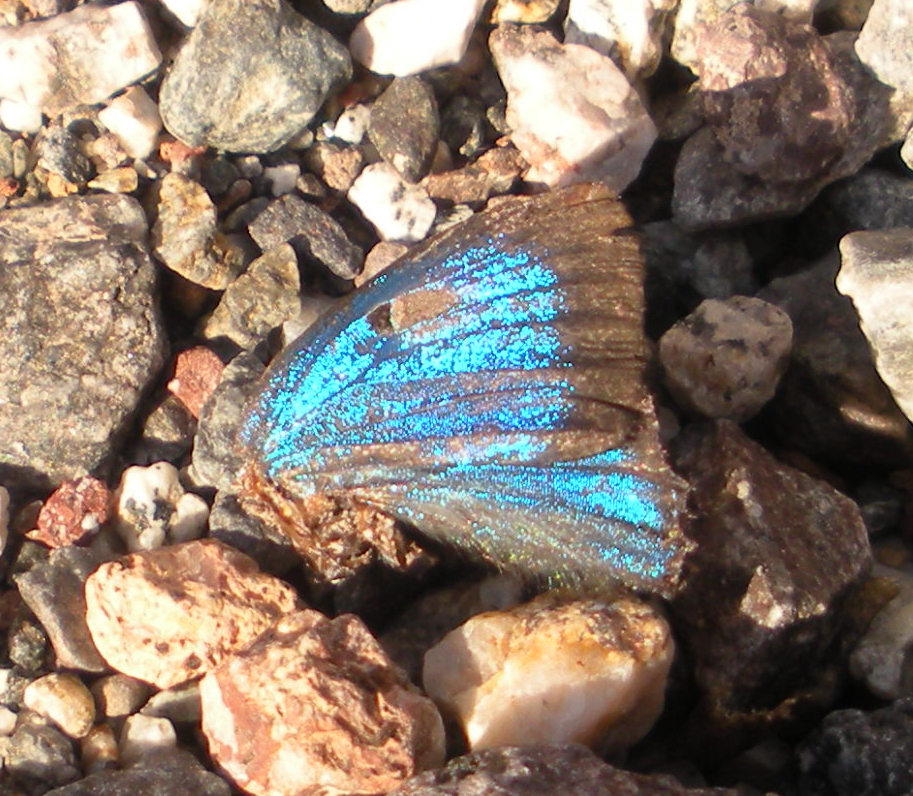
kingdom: Animalia
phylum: Arthropoda
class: Insecta
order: Lepidoptera
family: Lycaenidae
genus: Atlides
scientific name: Atlides halesus
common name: Great purple hairstreak
